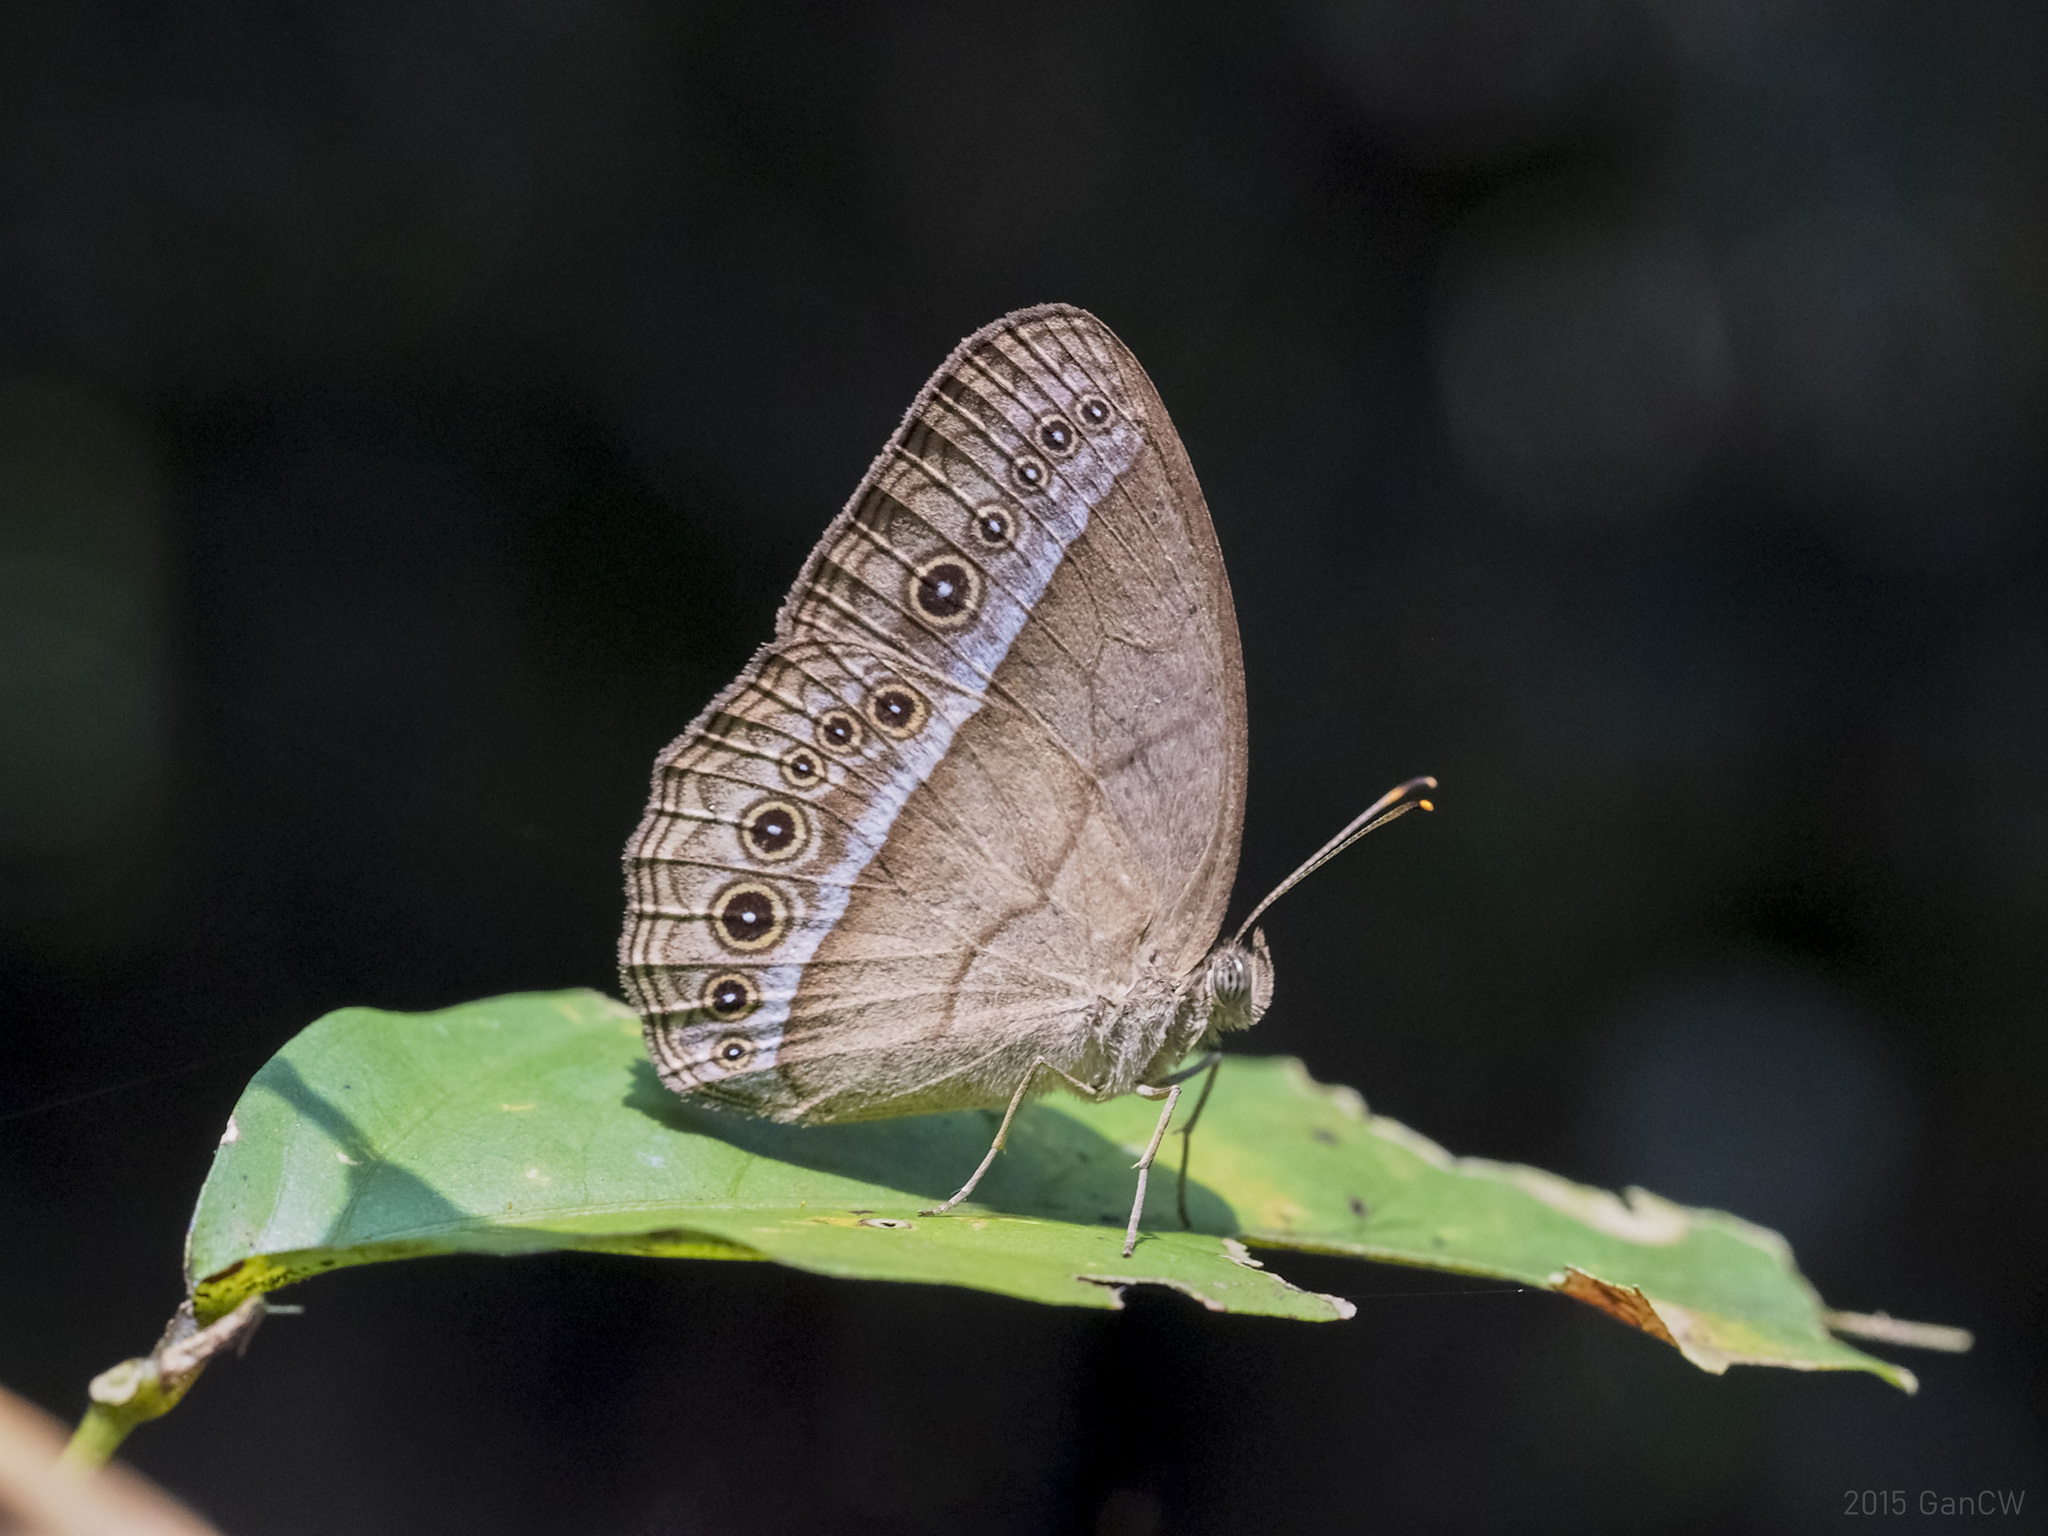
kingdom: Animalia
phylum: Arthropoda
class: Insecta
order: Lepidoptera
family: Nymphalidae
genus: Mycalesis
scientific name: Mycalesis orseis
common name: Purple bushbrown
